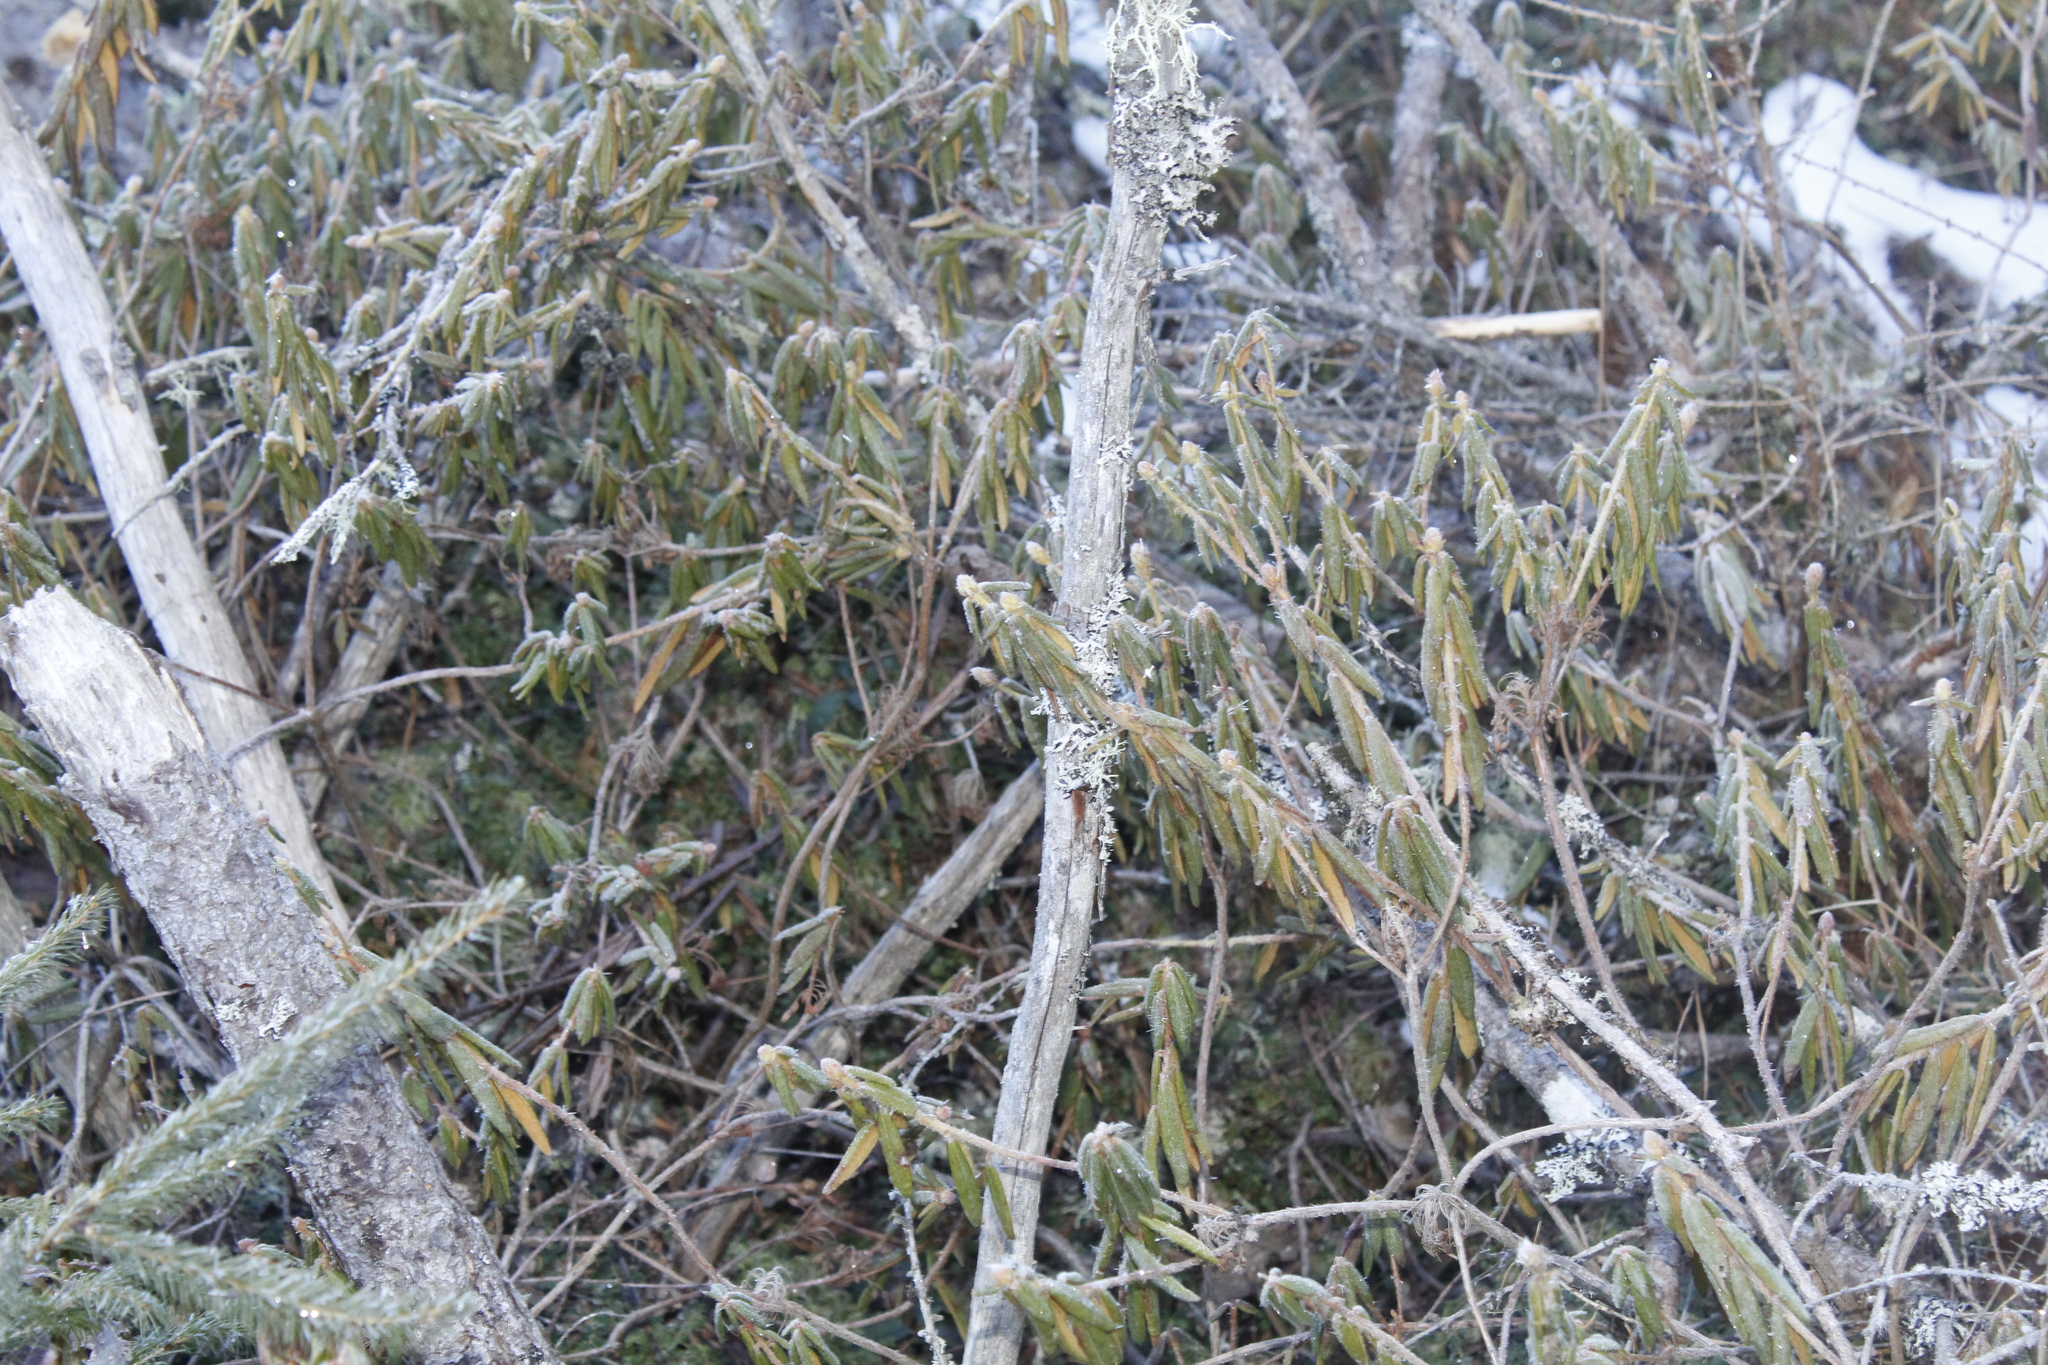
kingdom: Plantae
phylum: Tracheophyta
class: Magnoliopsida
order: Ericales
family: Ericaceae
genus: Rhododendron
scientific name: Rhododendron groenlandicum
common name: Bog labrador tea
